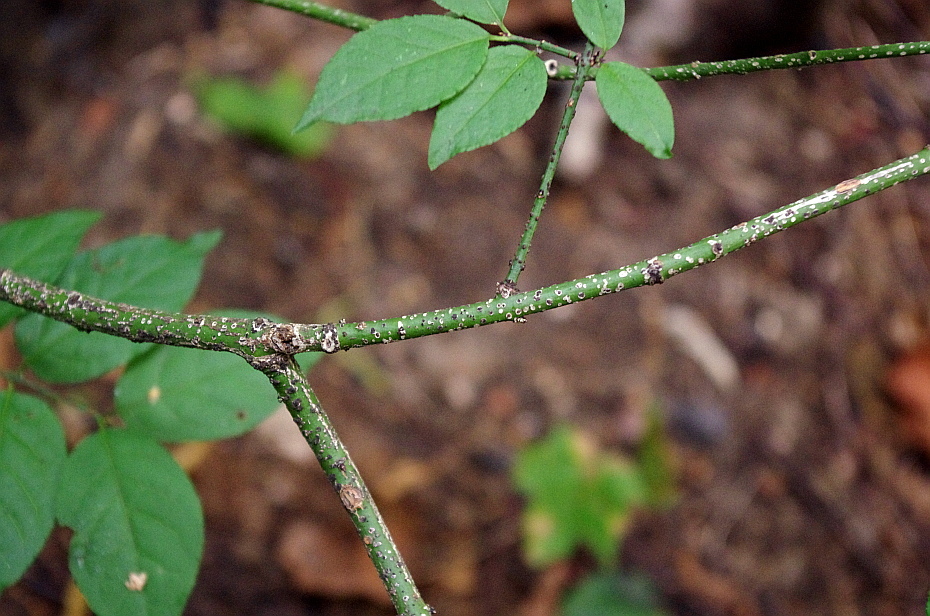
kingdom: Plantae
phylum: Tracheophyta
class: Magnoliopsida
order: Celastrales
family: Celastraceae
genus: Euonymus
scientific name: Euonymus verrucosus
